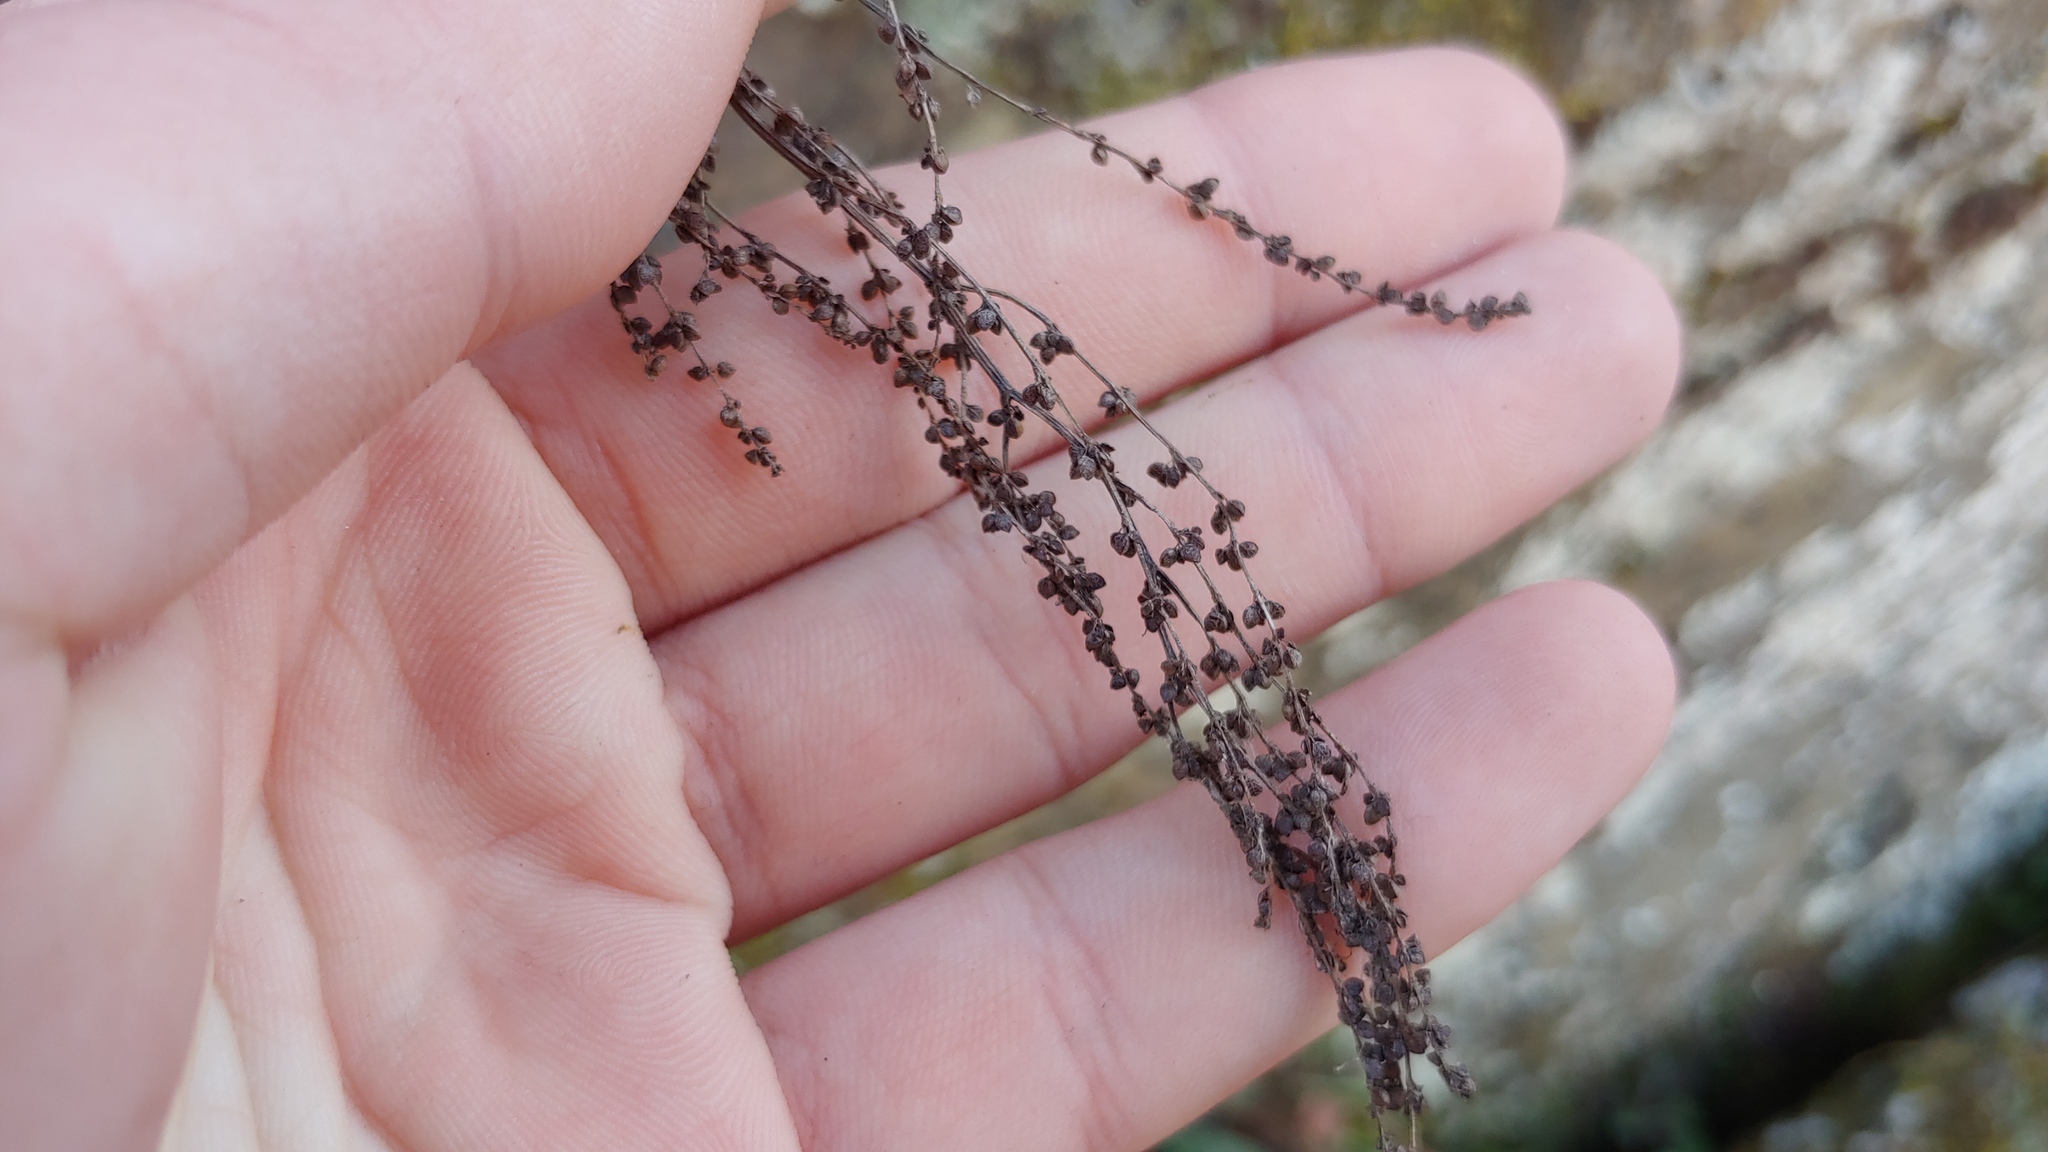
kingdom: Plantae
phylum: Tracheophyta
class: Magnoliopsida
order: Caryophyllales
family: Polygonaceae
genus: Rumex
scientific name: Rumex acetosella
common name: Common sheep sorrel
